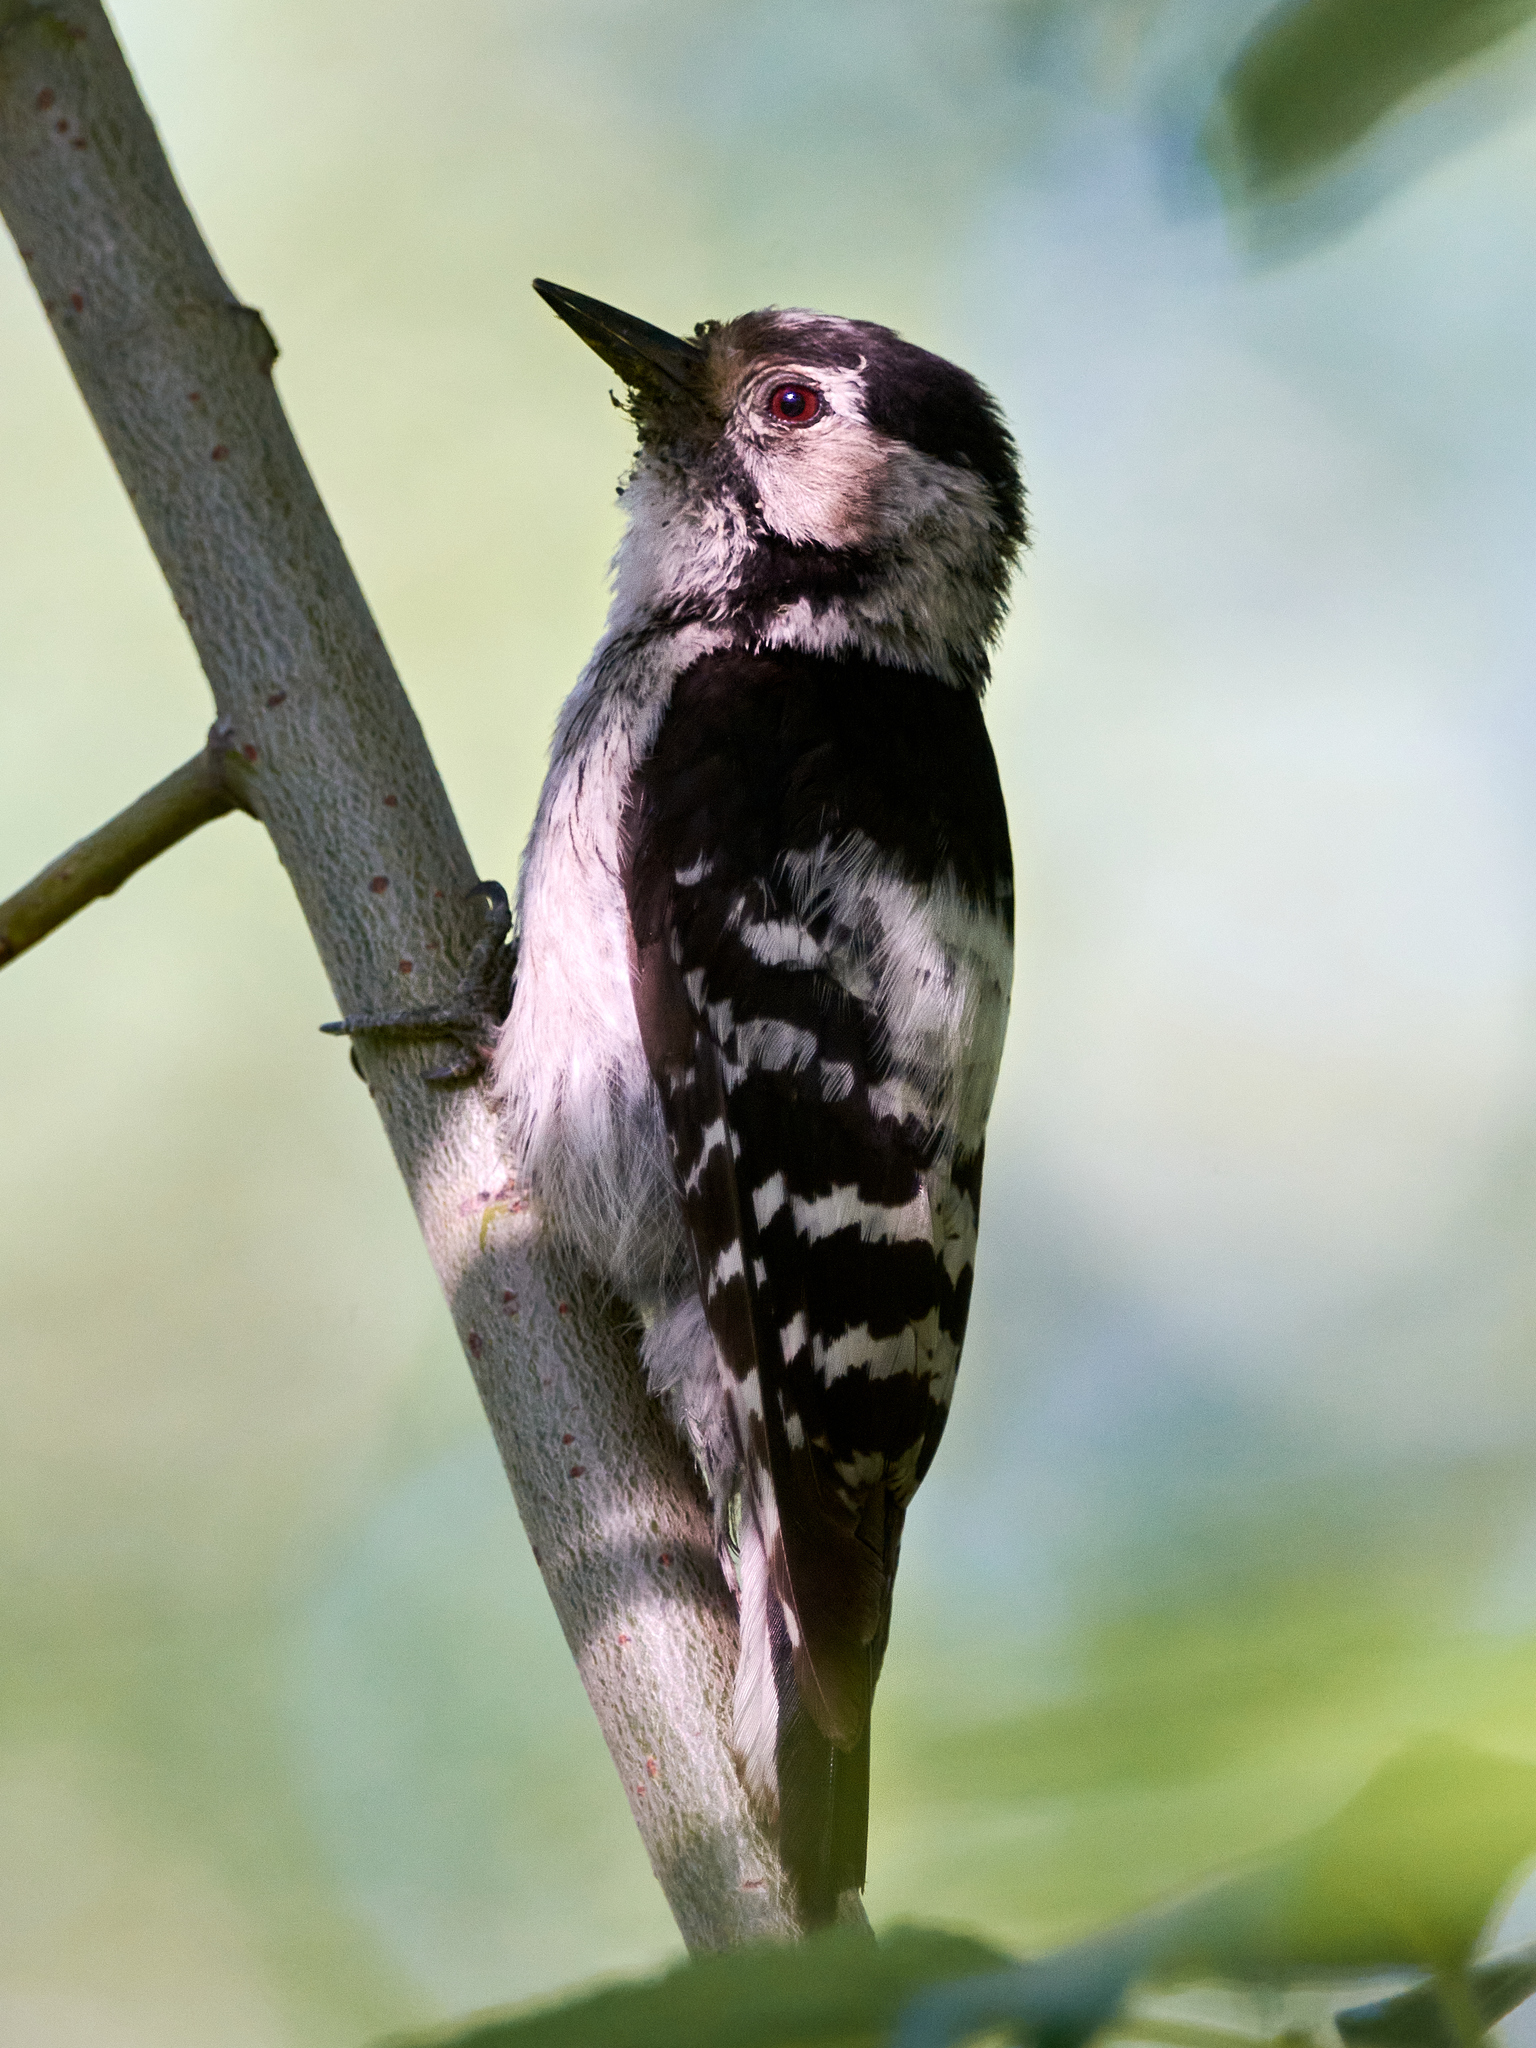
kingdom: Animalia
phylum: Chordata
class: Aves
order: Piciformes
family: Picidae
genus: Dryobates
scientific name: Dryobates minor
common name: Lesser spotted woodpecker
